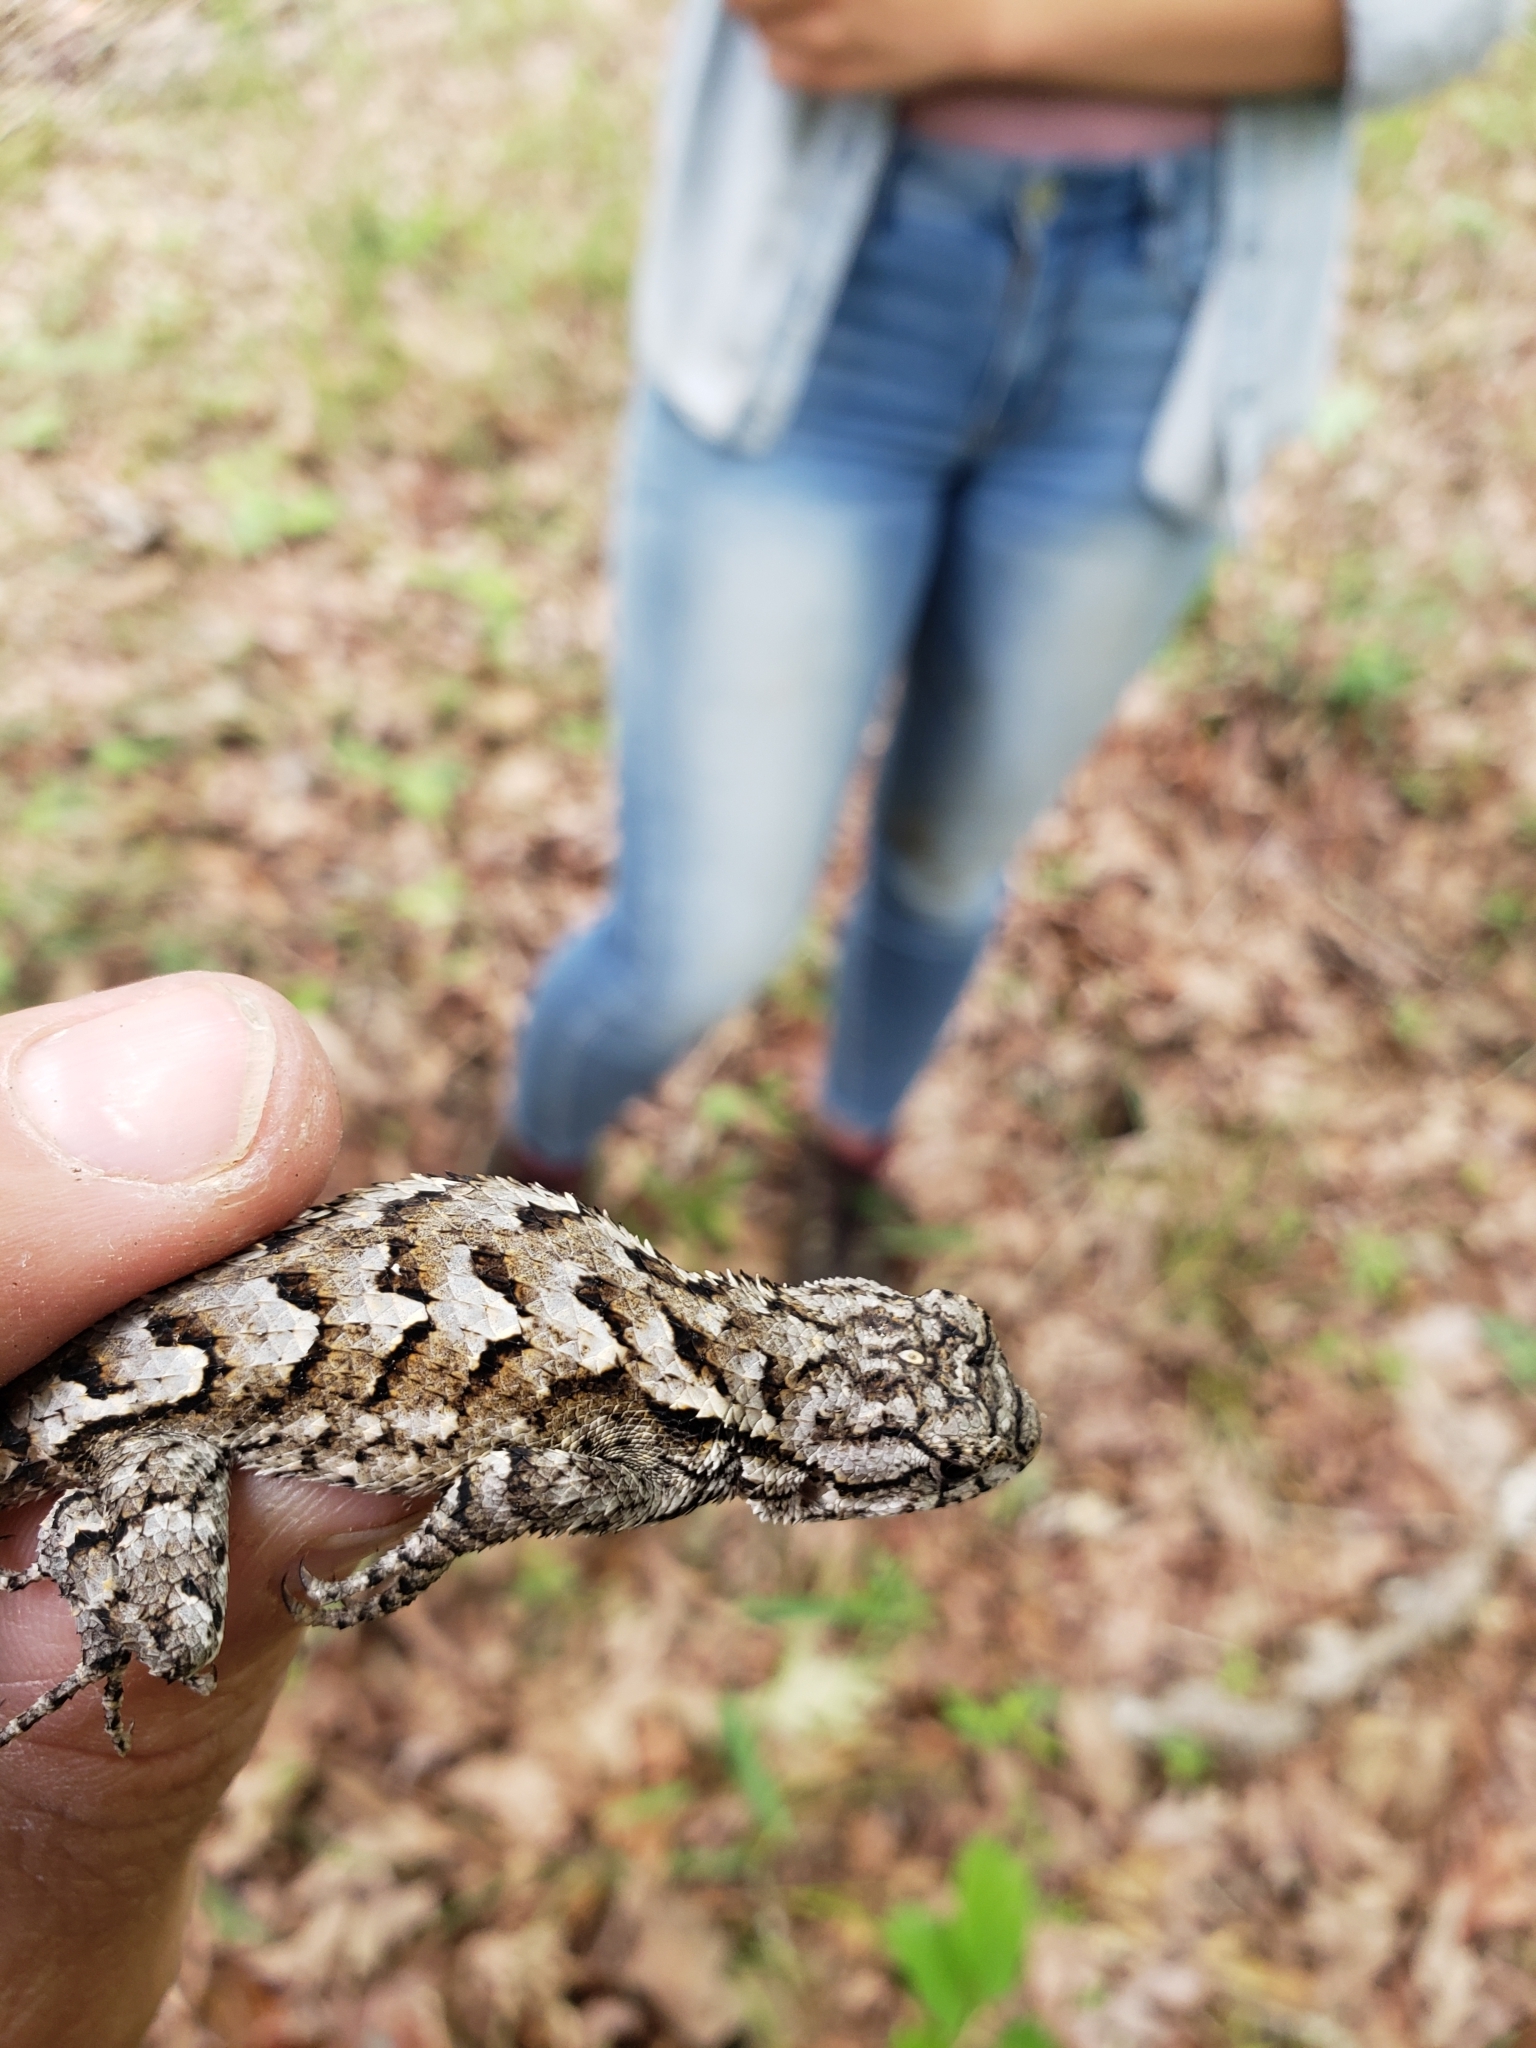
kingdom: Animalia
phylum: Chordata
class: Squamata
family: Phrynosomatidae
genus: Sceloporus
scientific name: Sceloporus consobrinus
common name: Southern prairie lizard
